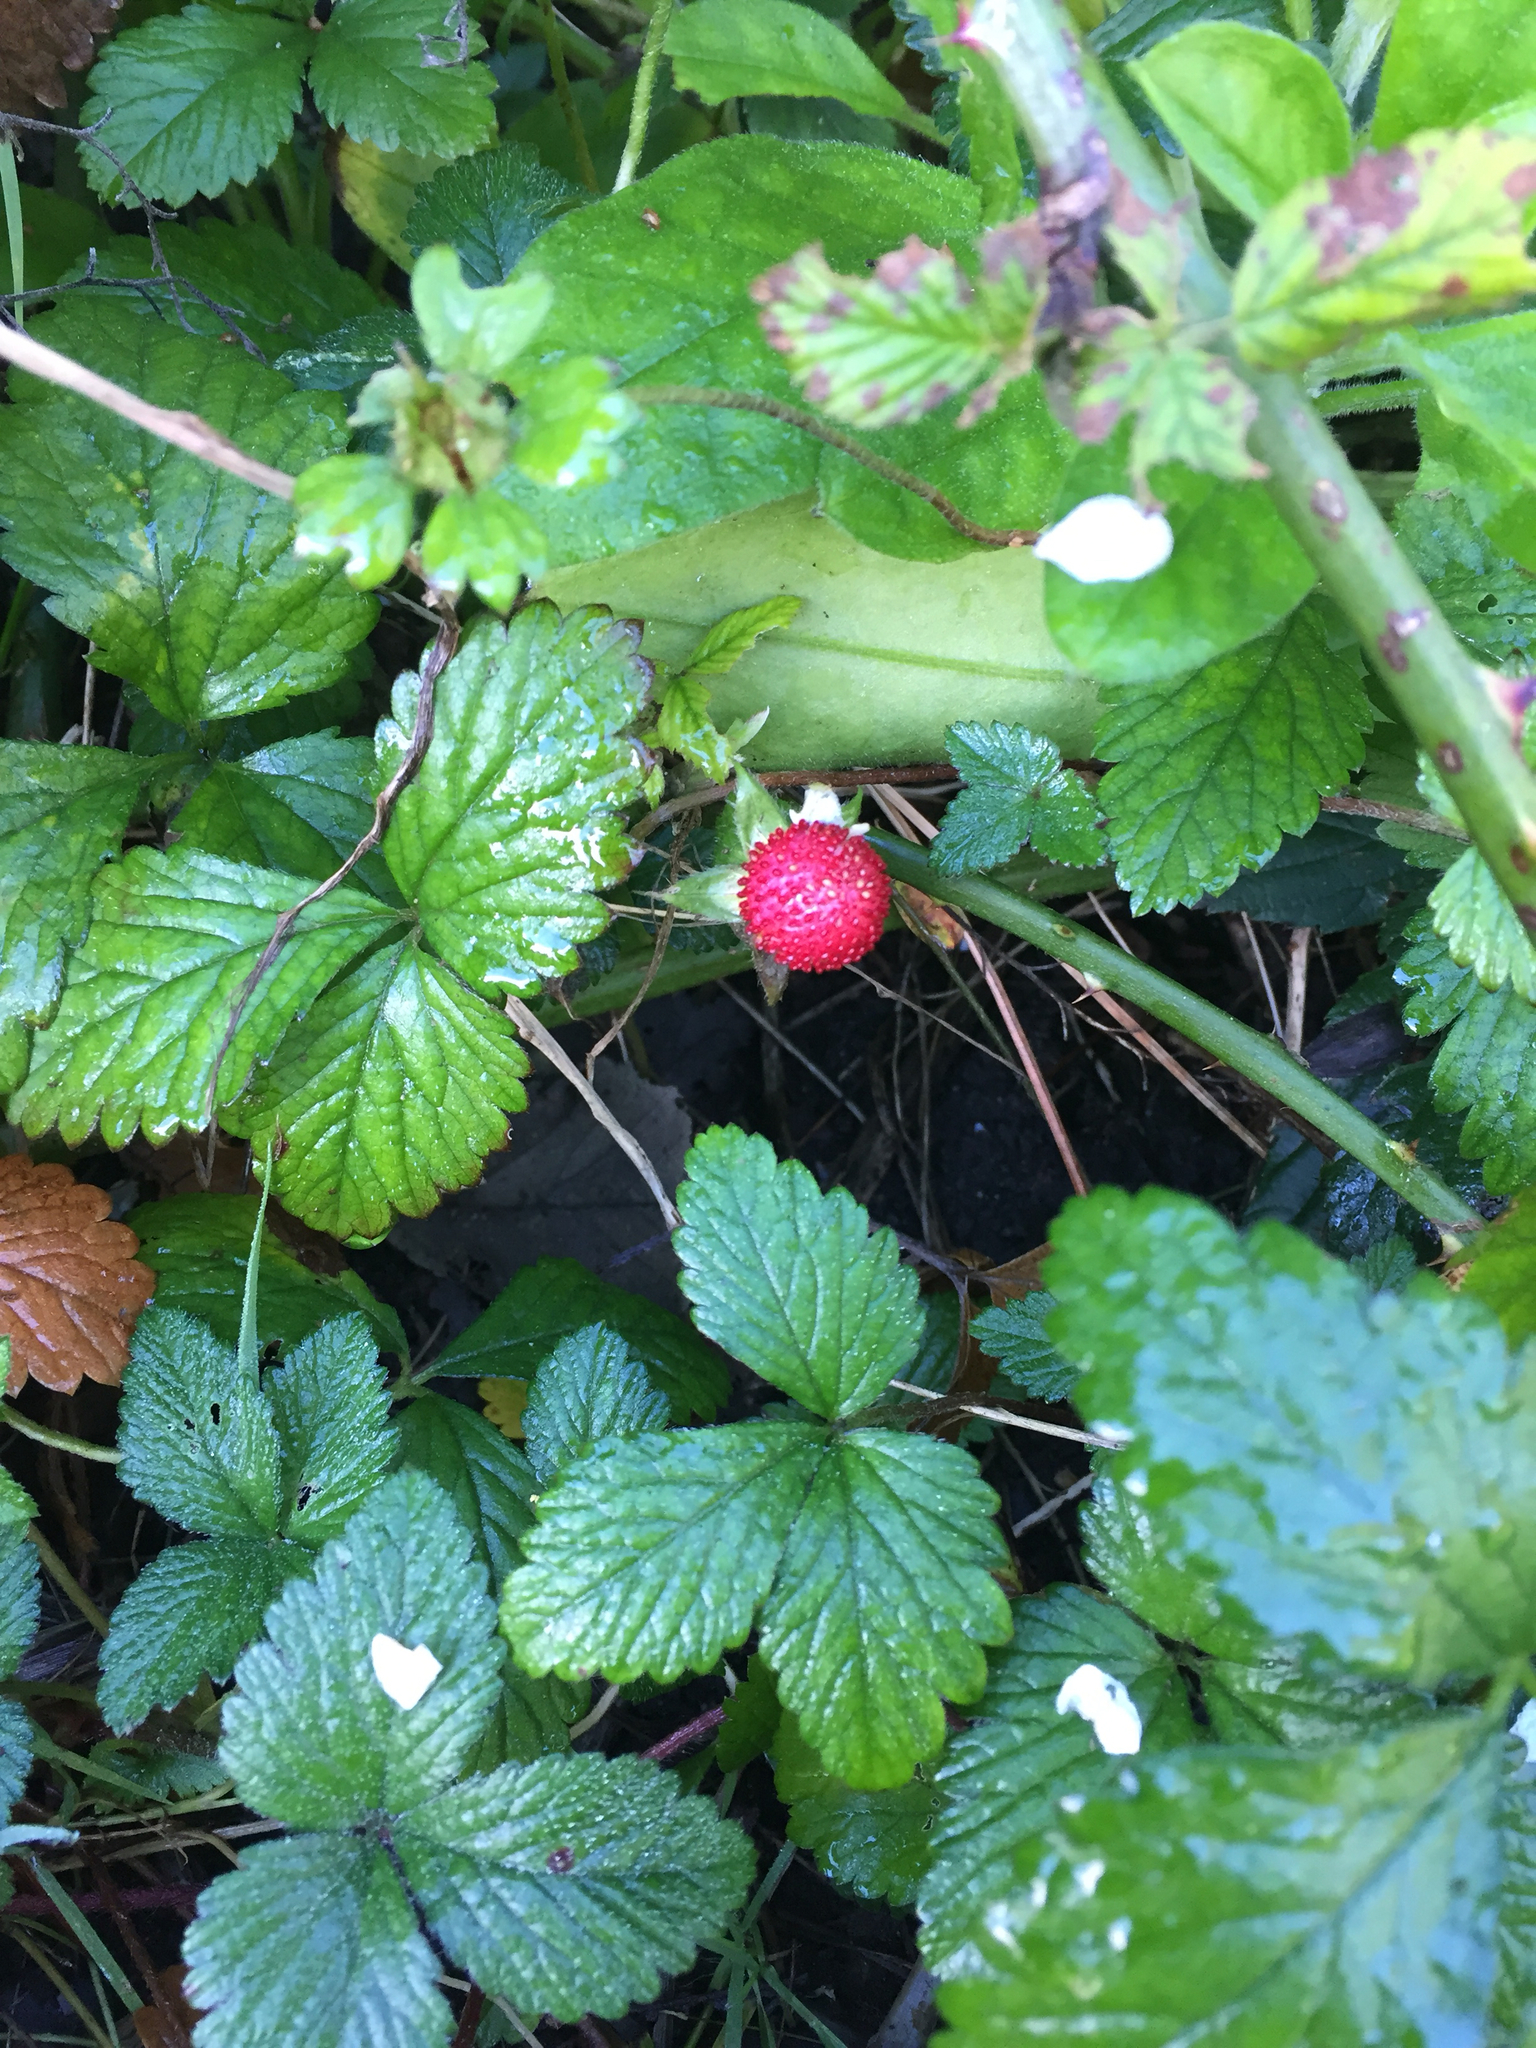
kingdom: Plantae
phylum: Tracheophyta
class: Magnoliopsida
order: Rosales
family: Rosaceae
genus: Potentilla
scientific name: Potentilla indica
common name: Yellow-flowered strawberry
